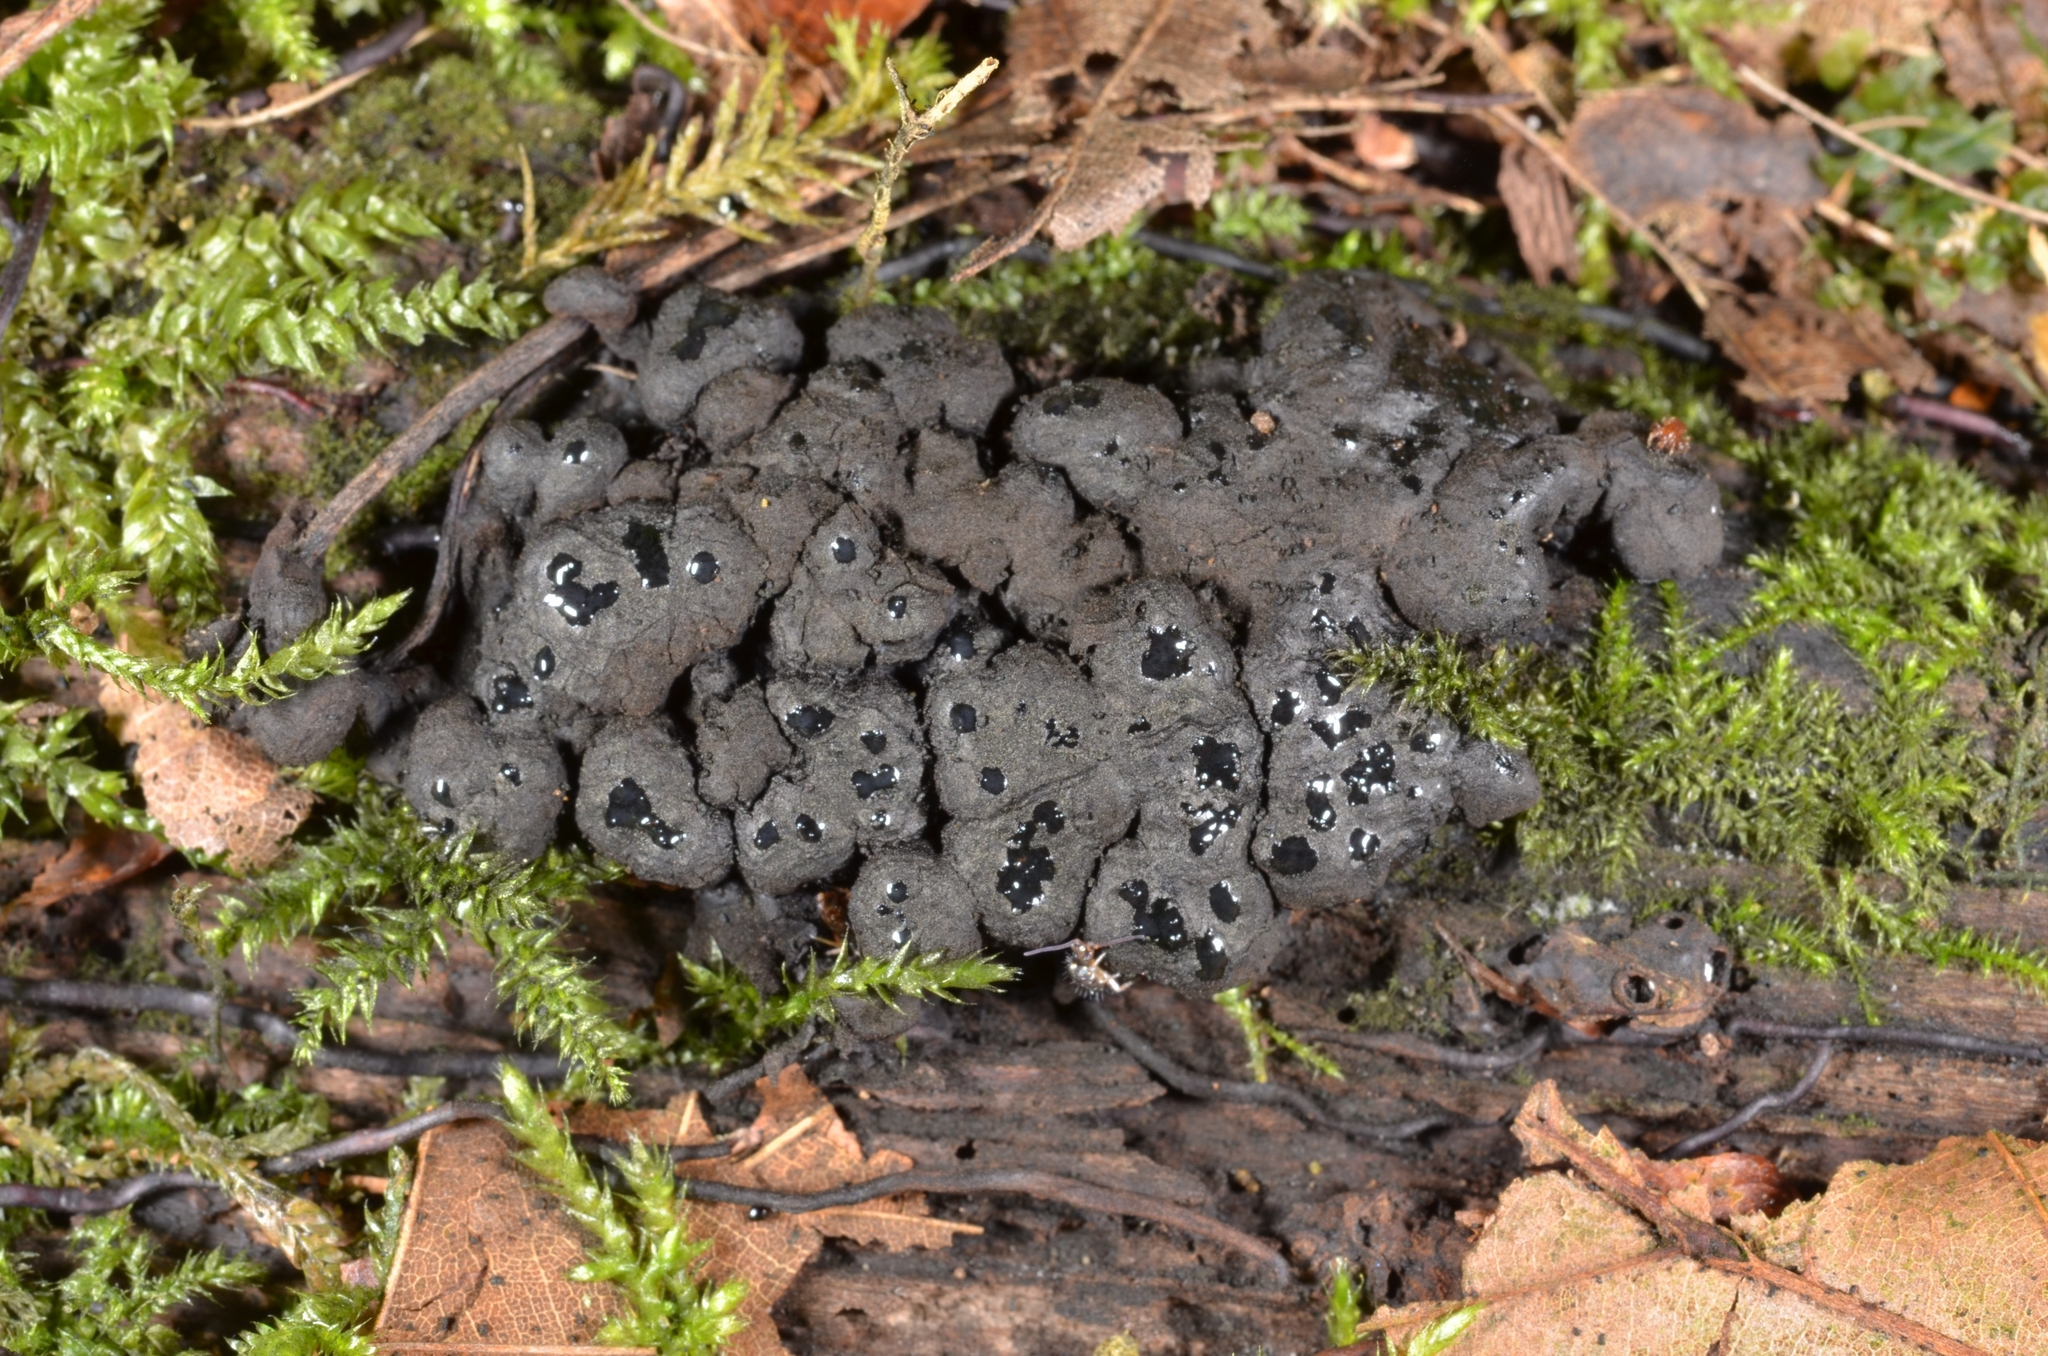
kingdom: Fungi
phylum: Ascomycota
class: Sordariomycetes
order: Xylariales
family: Xylariaceae
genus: Kretzschmaria
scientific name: Kretzschmaria deusta
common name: Brittle cinder
